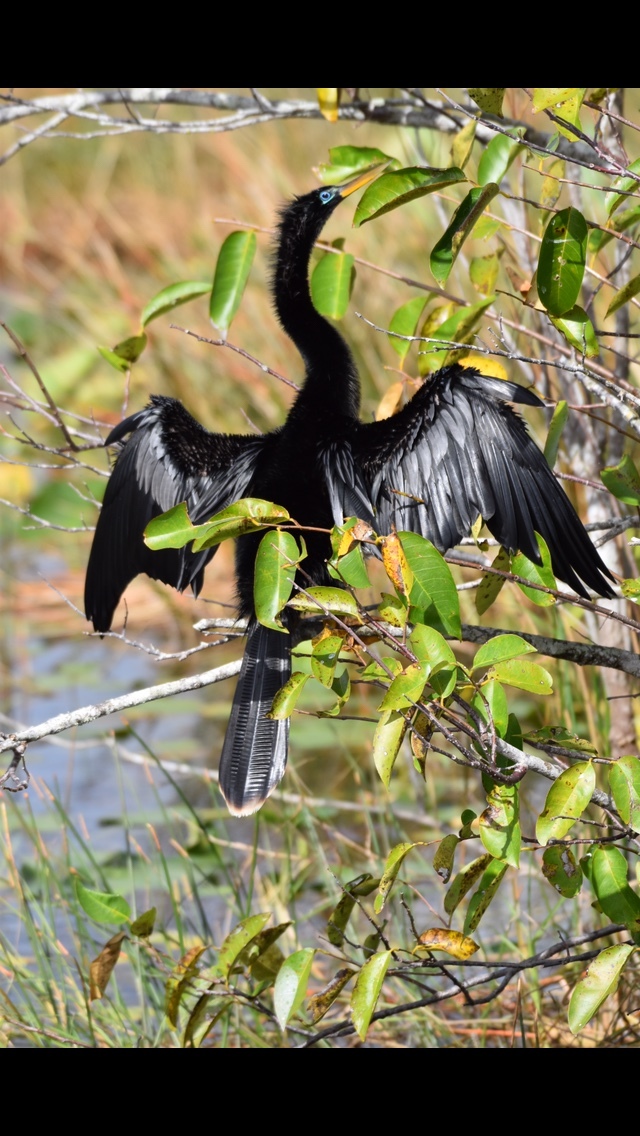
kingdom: Animalia
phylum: Chordata
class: Aves
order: Suliformes
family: Anhingidae
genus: Anhinga
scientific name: Anhinga anhinga
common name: Anhinga
